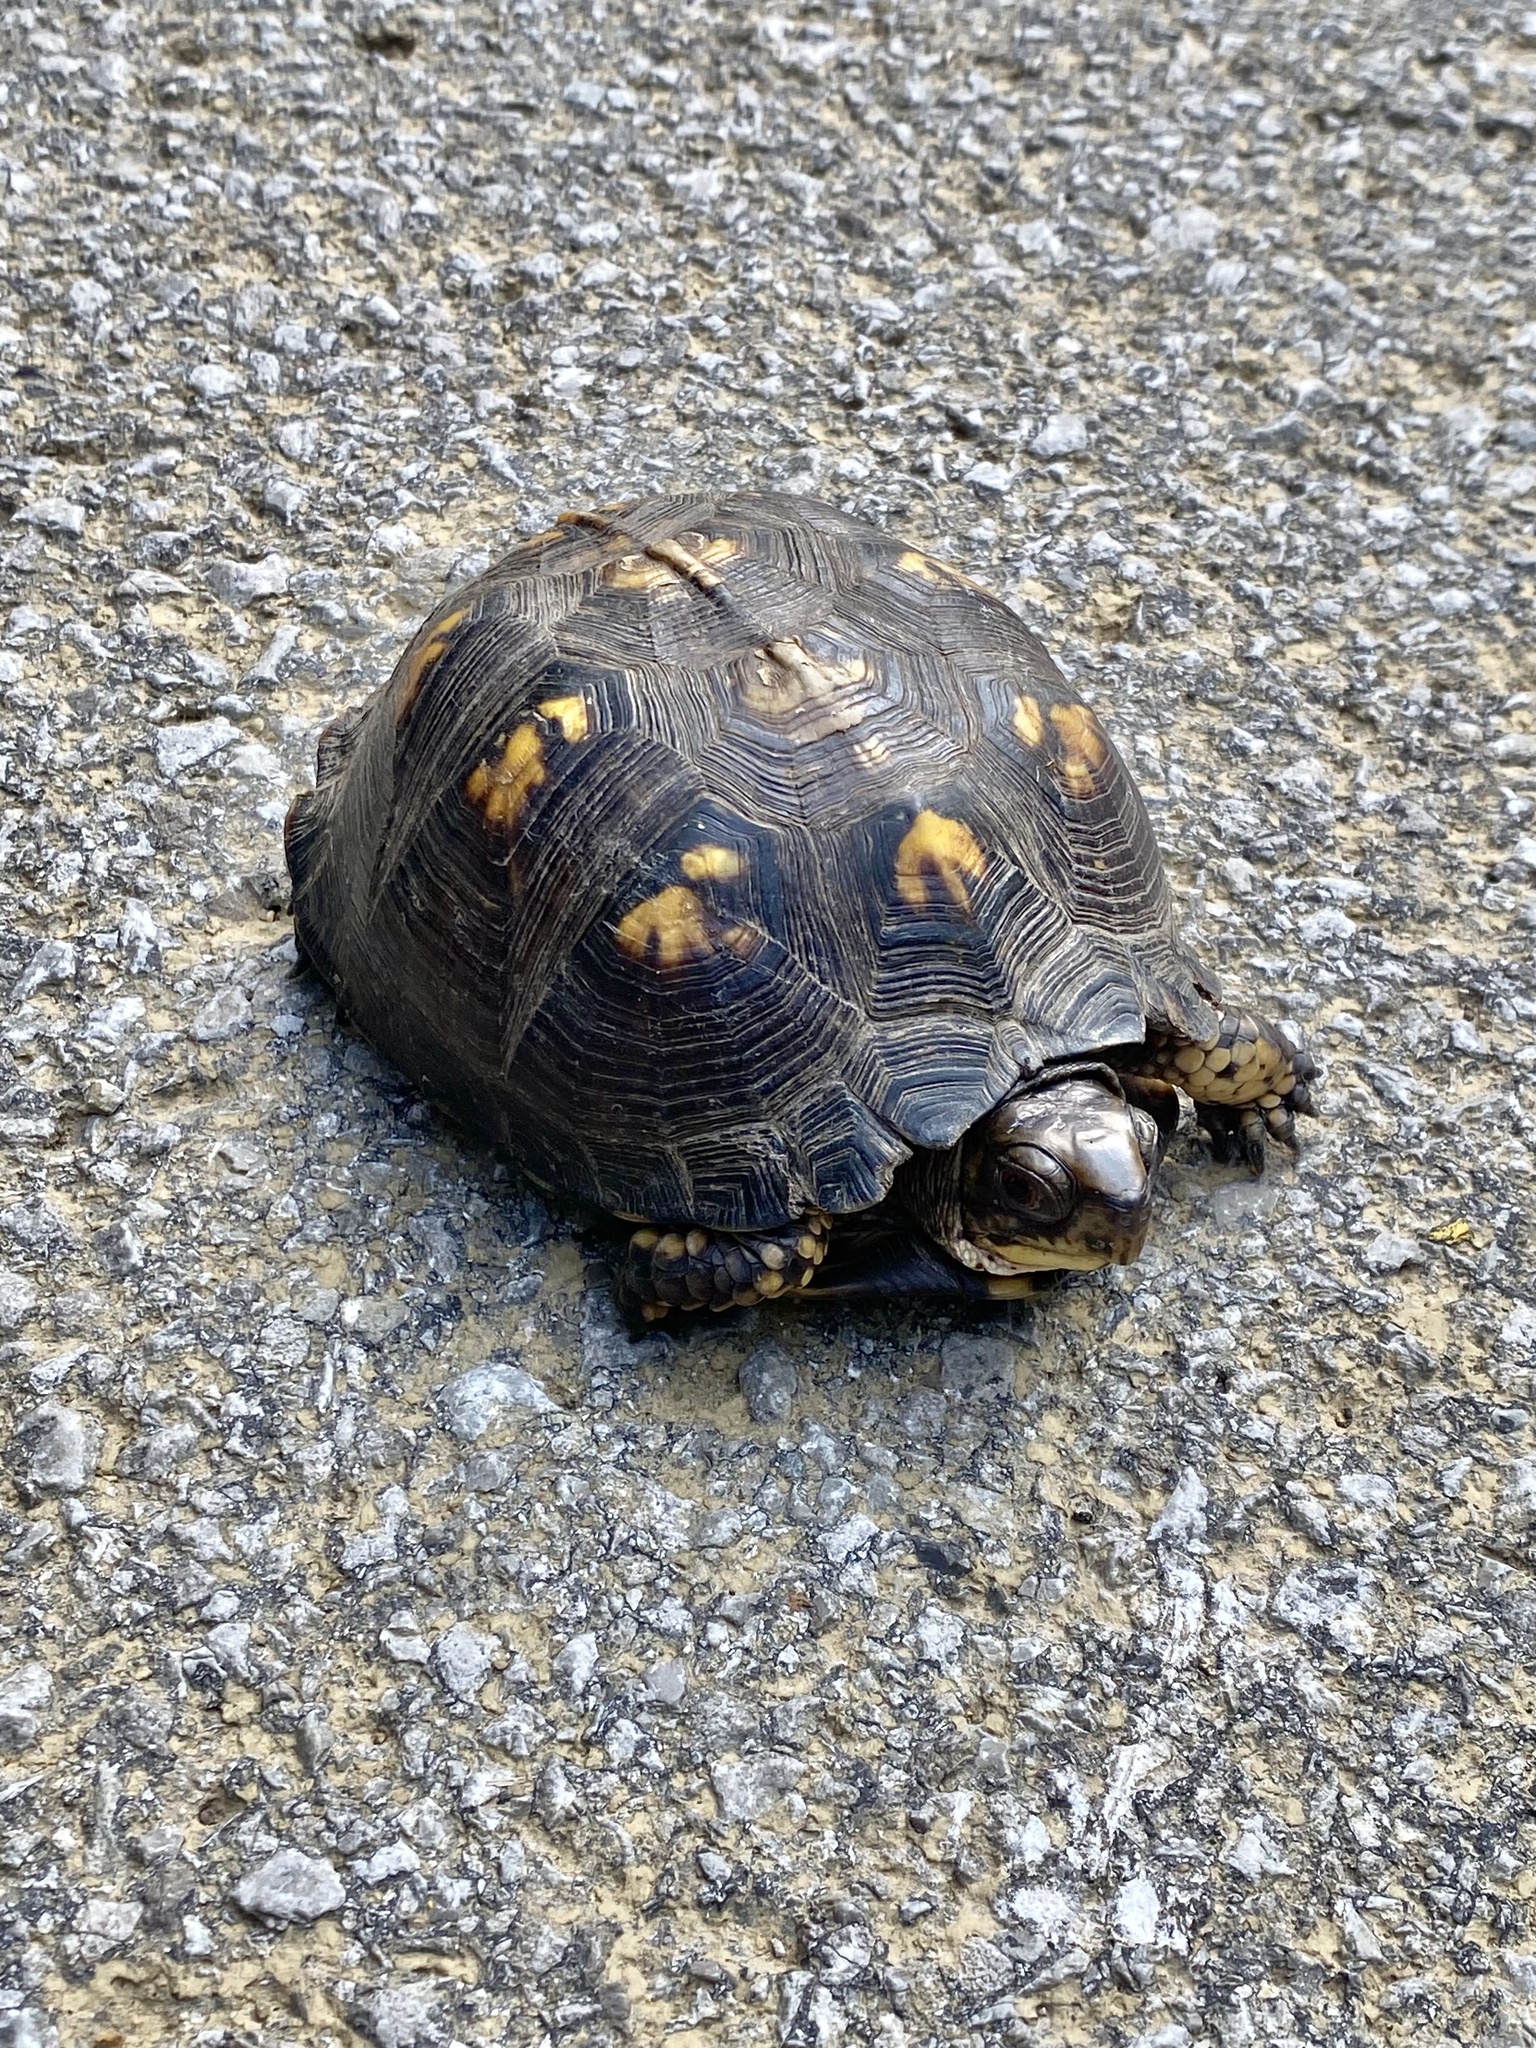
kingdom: Animalia
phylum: Chordata
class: Testudines
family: Emydidae
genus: Terrapene
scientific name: Terrapene carolina
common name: Common box turtle
